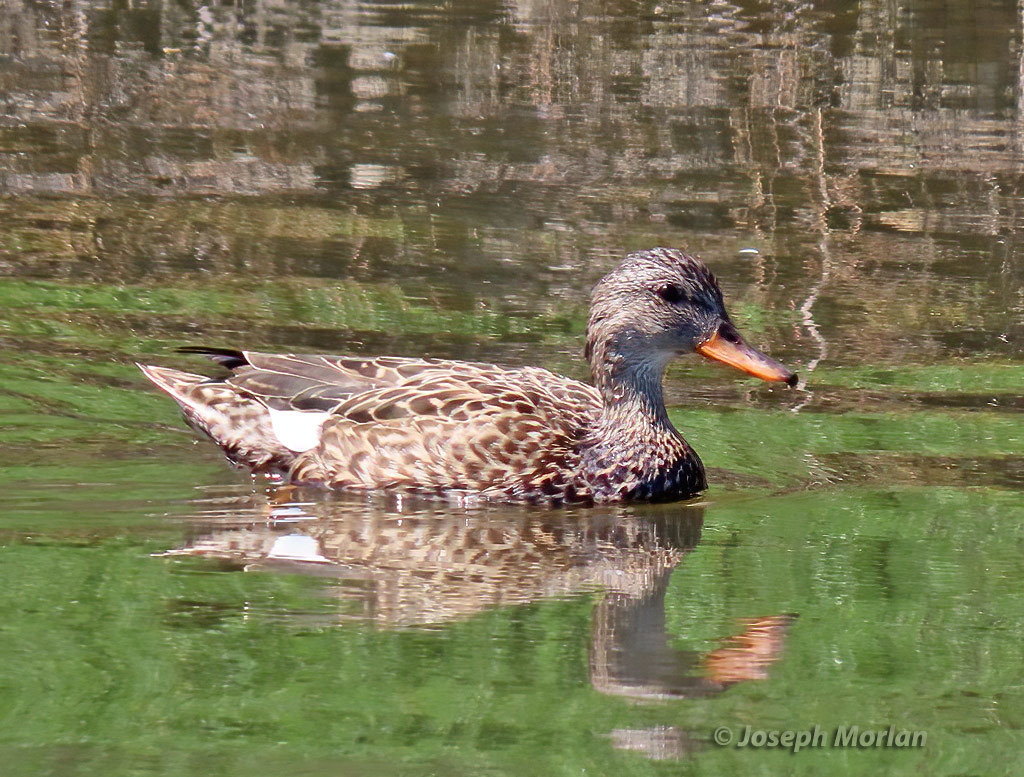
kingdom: Animalia
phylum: Chordata
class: Aves
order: Anseriformes
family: Anatidae
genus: Mareca
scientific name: Mareca strepera
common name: Gadwall
